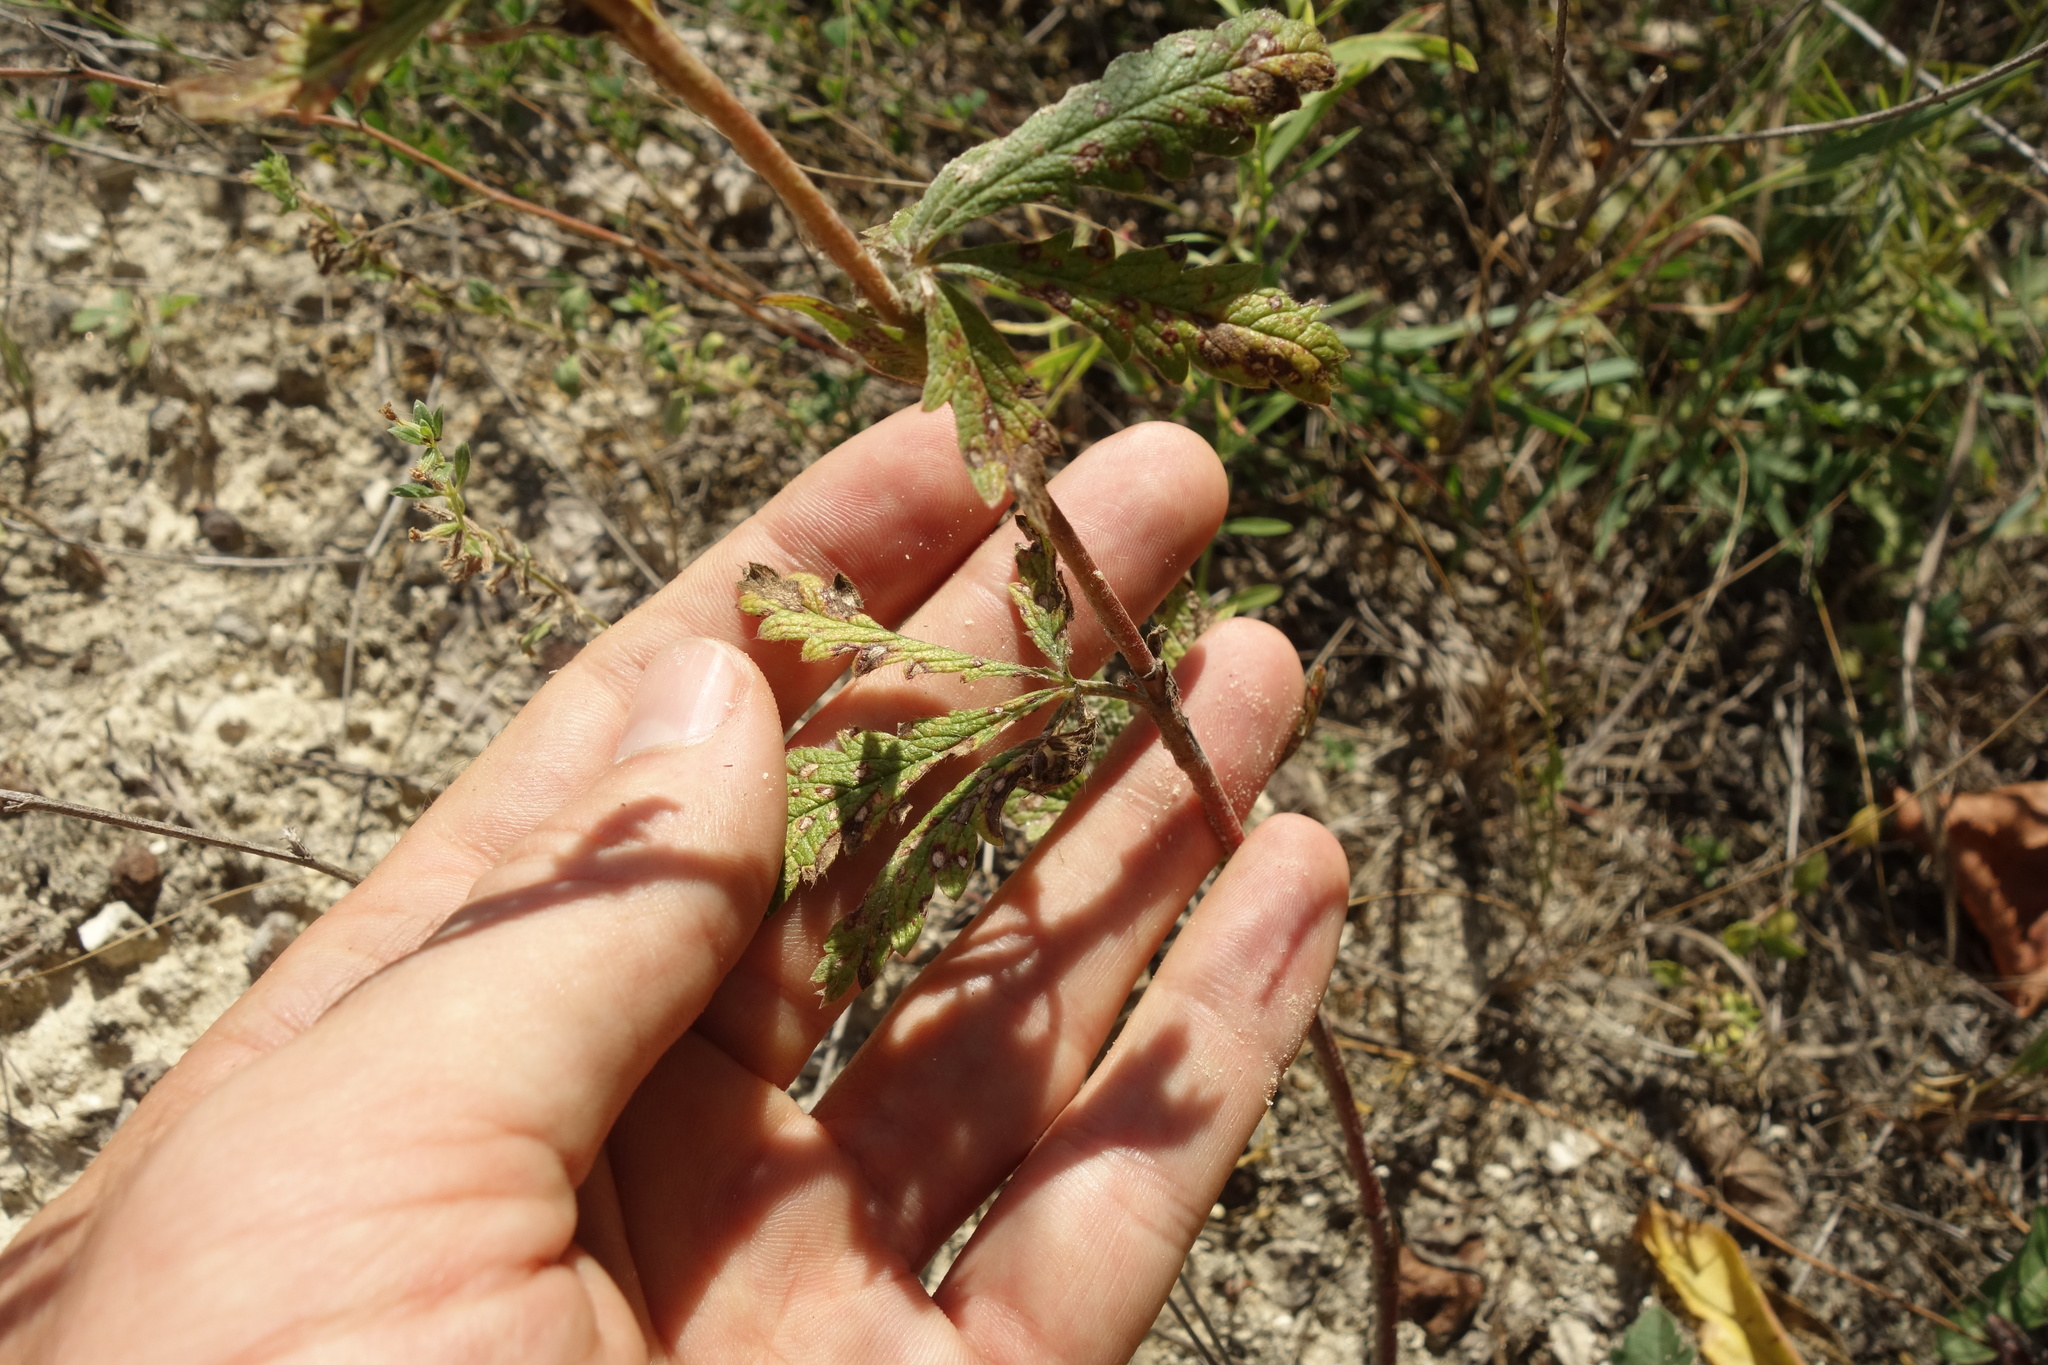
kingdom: Plantae
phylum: Tracheophyta
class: Magnoliopsida
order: Rosales
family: Rosaceae
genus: Potentilla
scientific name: Potentilla recta
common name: Sulphur cinquefoil
